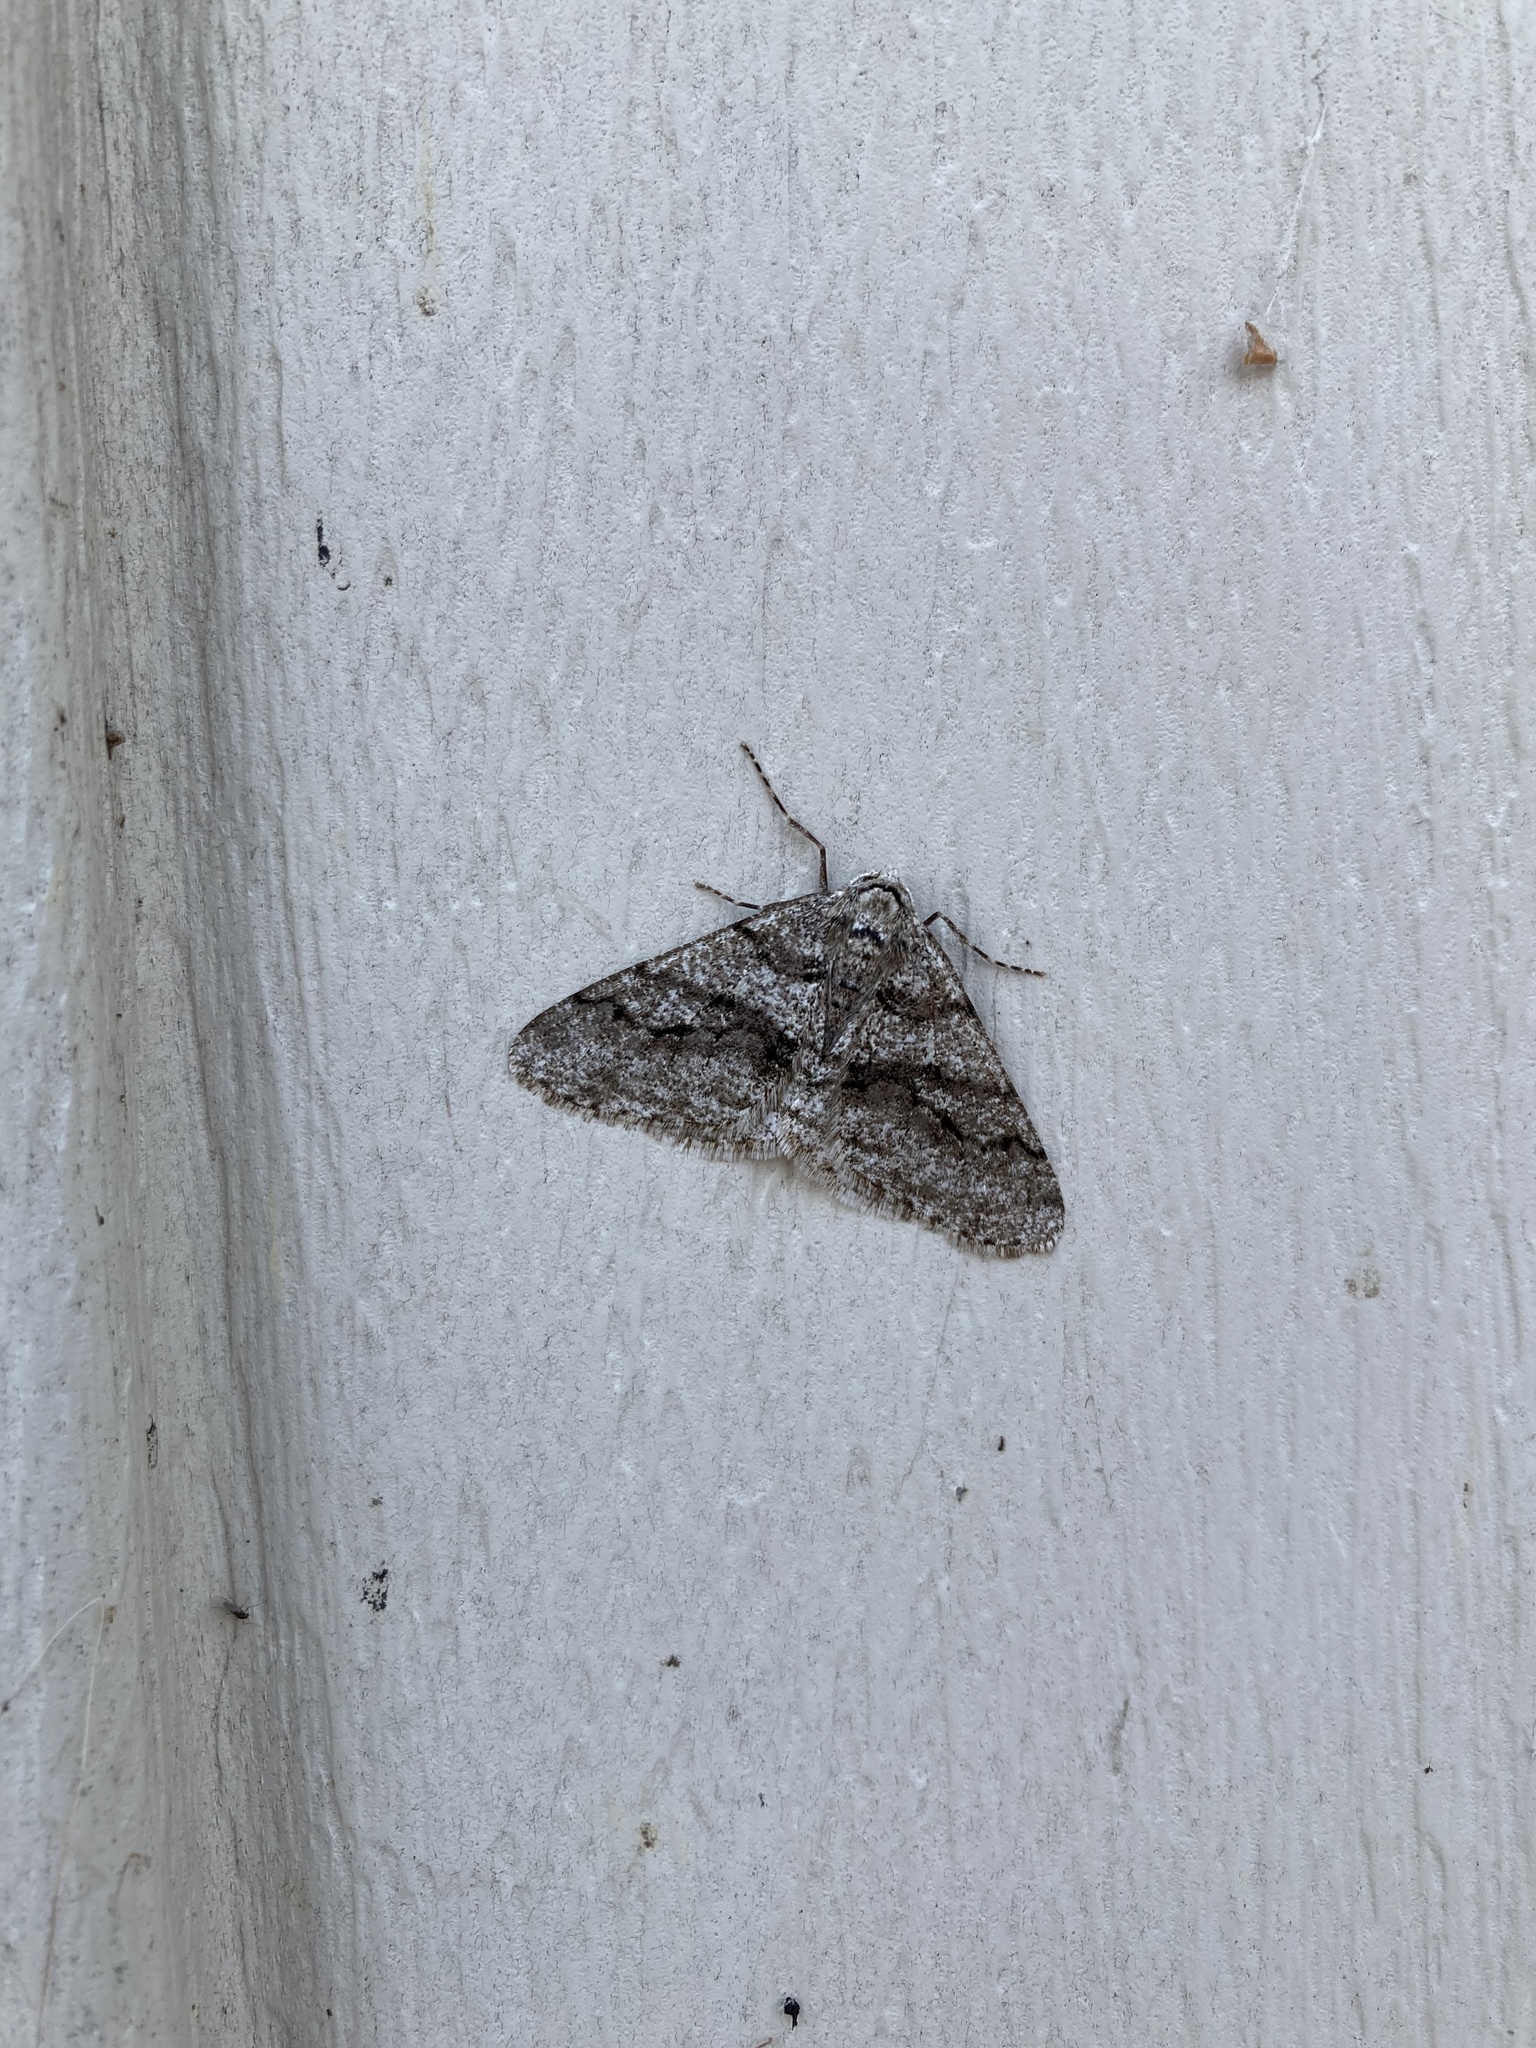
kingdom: Animalia
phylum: Arthropoda
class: Insecta
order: Lepidoptera
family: Geometridae
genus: Phigalia
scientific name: Phigalia titea
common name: Spiny looper
